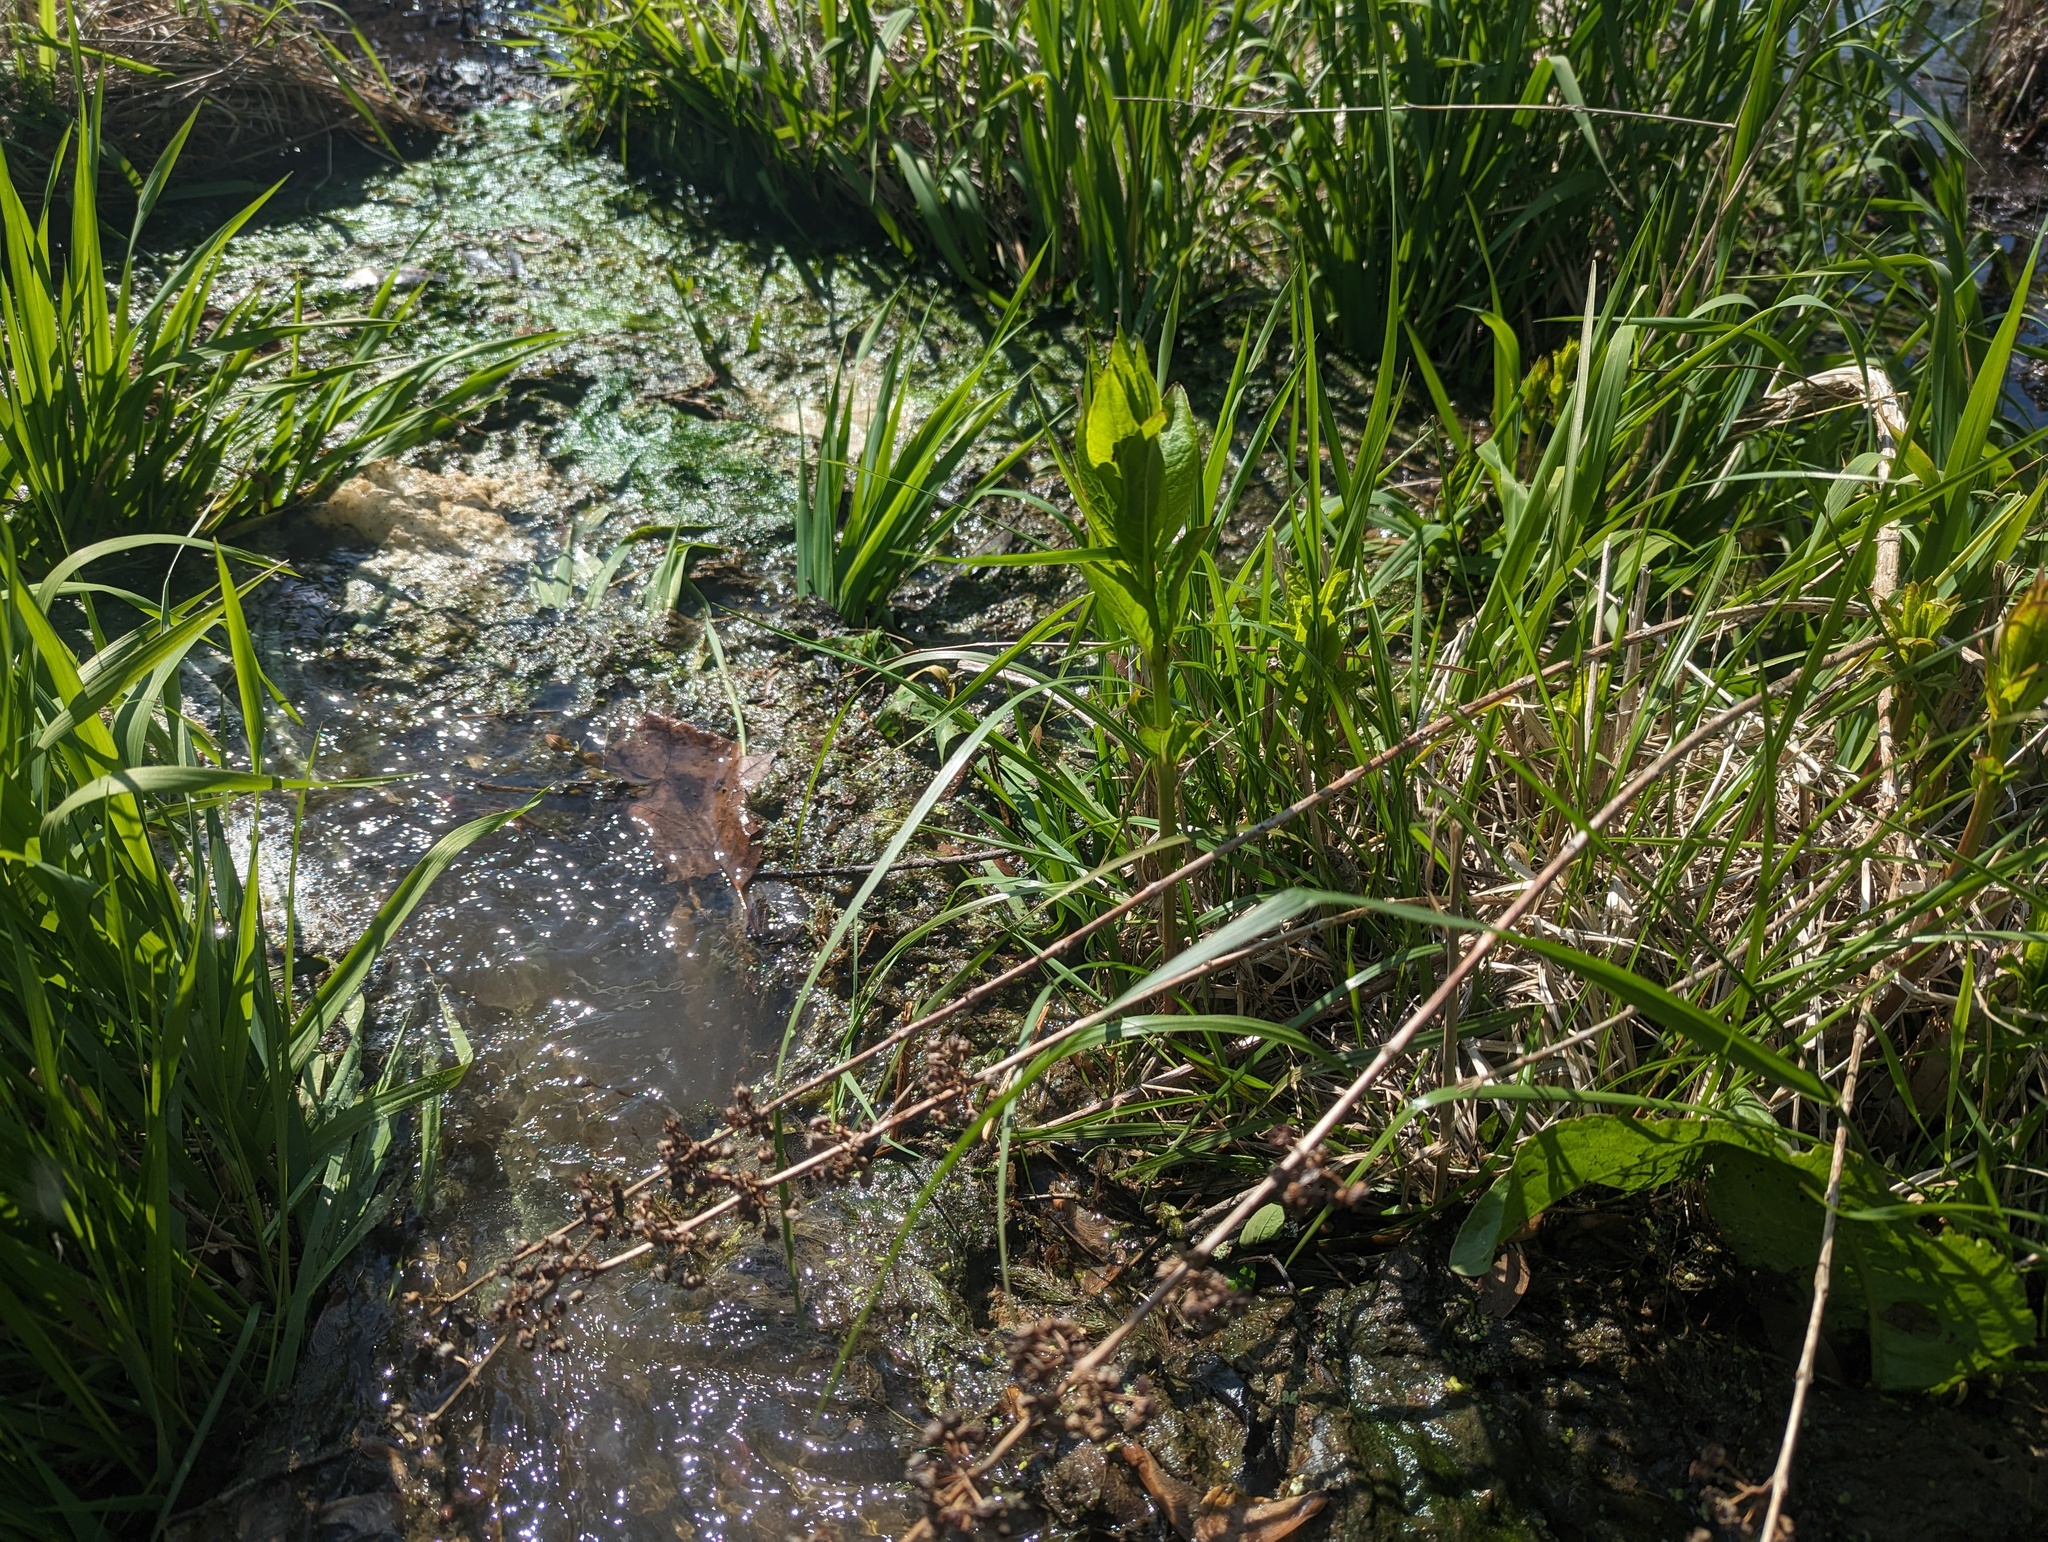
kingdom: Plantae
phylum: Tracheophyta
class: Magnoliopsida
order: Myrtales
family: Lythraceae
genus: Decodon
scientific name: Decodon verticillatus
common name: Hairy swamp loosestrife
